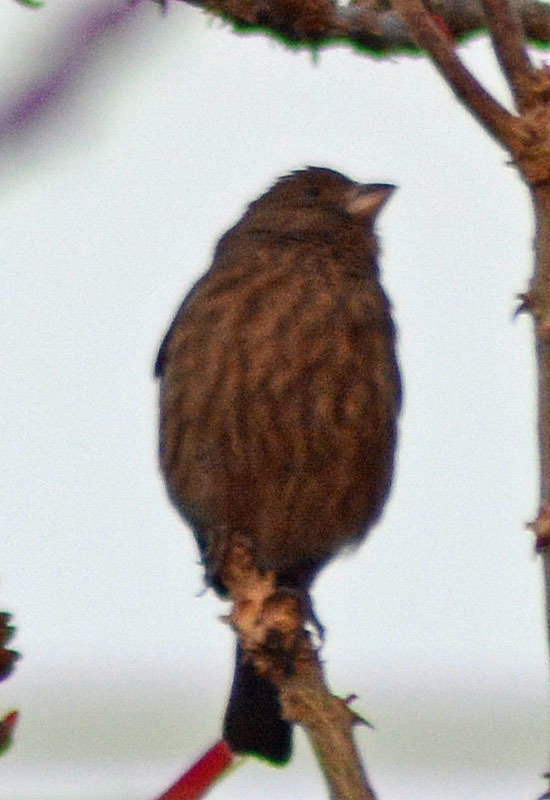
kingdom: Animalia
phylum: Chordata
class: Aves
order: Passeriformes
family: Fringillidae
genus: Haemorhous
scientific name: Haemorhous mexicanus
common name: House finch
